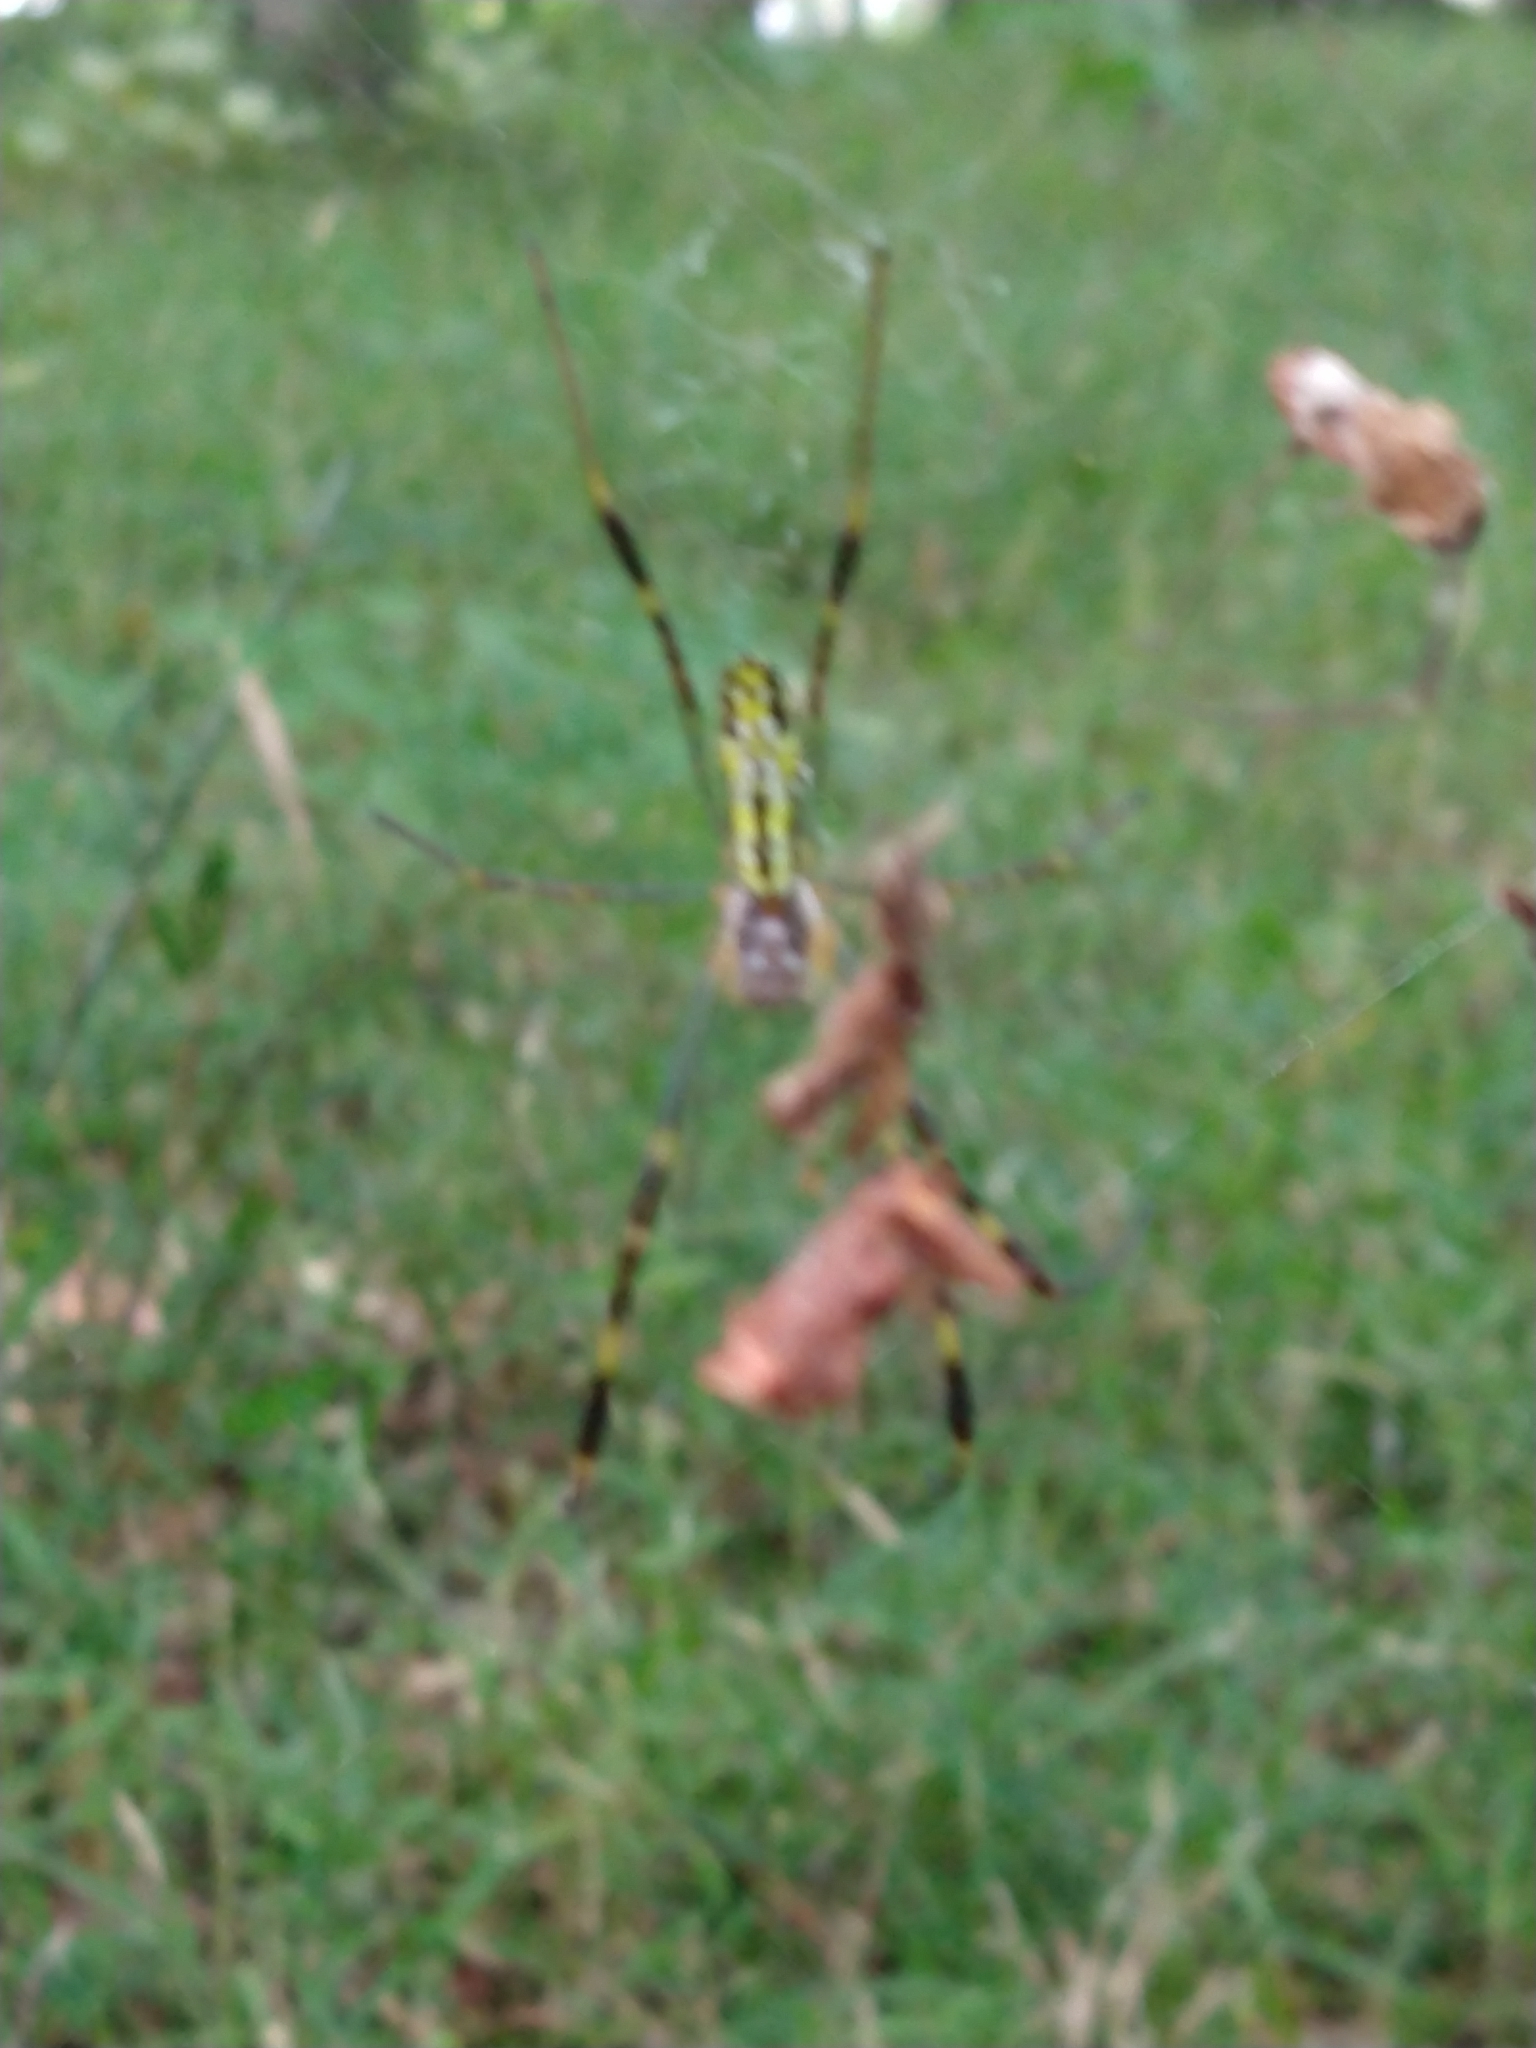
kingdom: Animalia
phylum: Arthropoda
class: Arachnida
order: Araneae
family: Araneidae
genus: Trichonephila
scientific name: Trichonephila clavata
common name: Jorō spider
